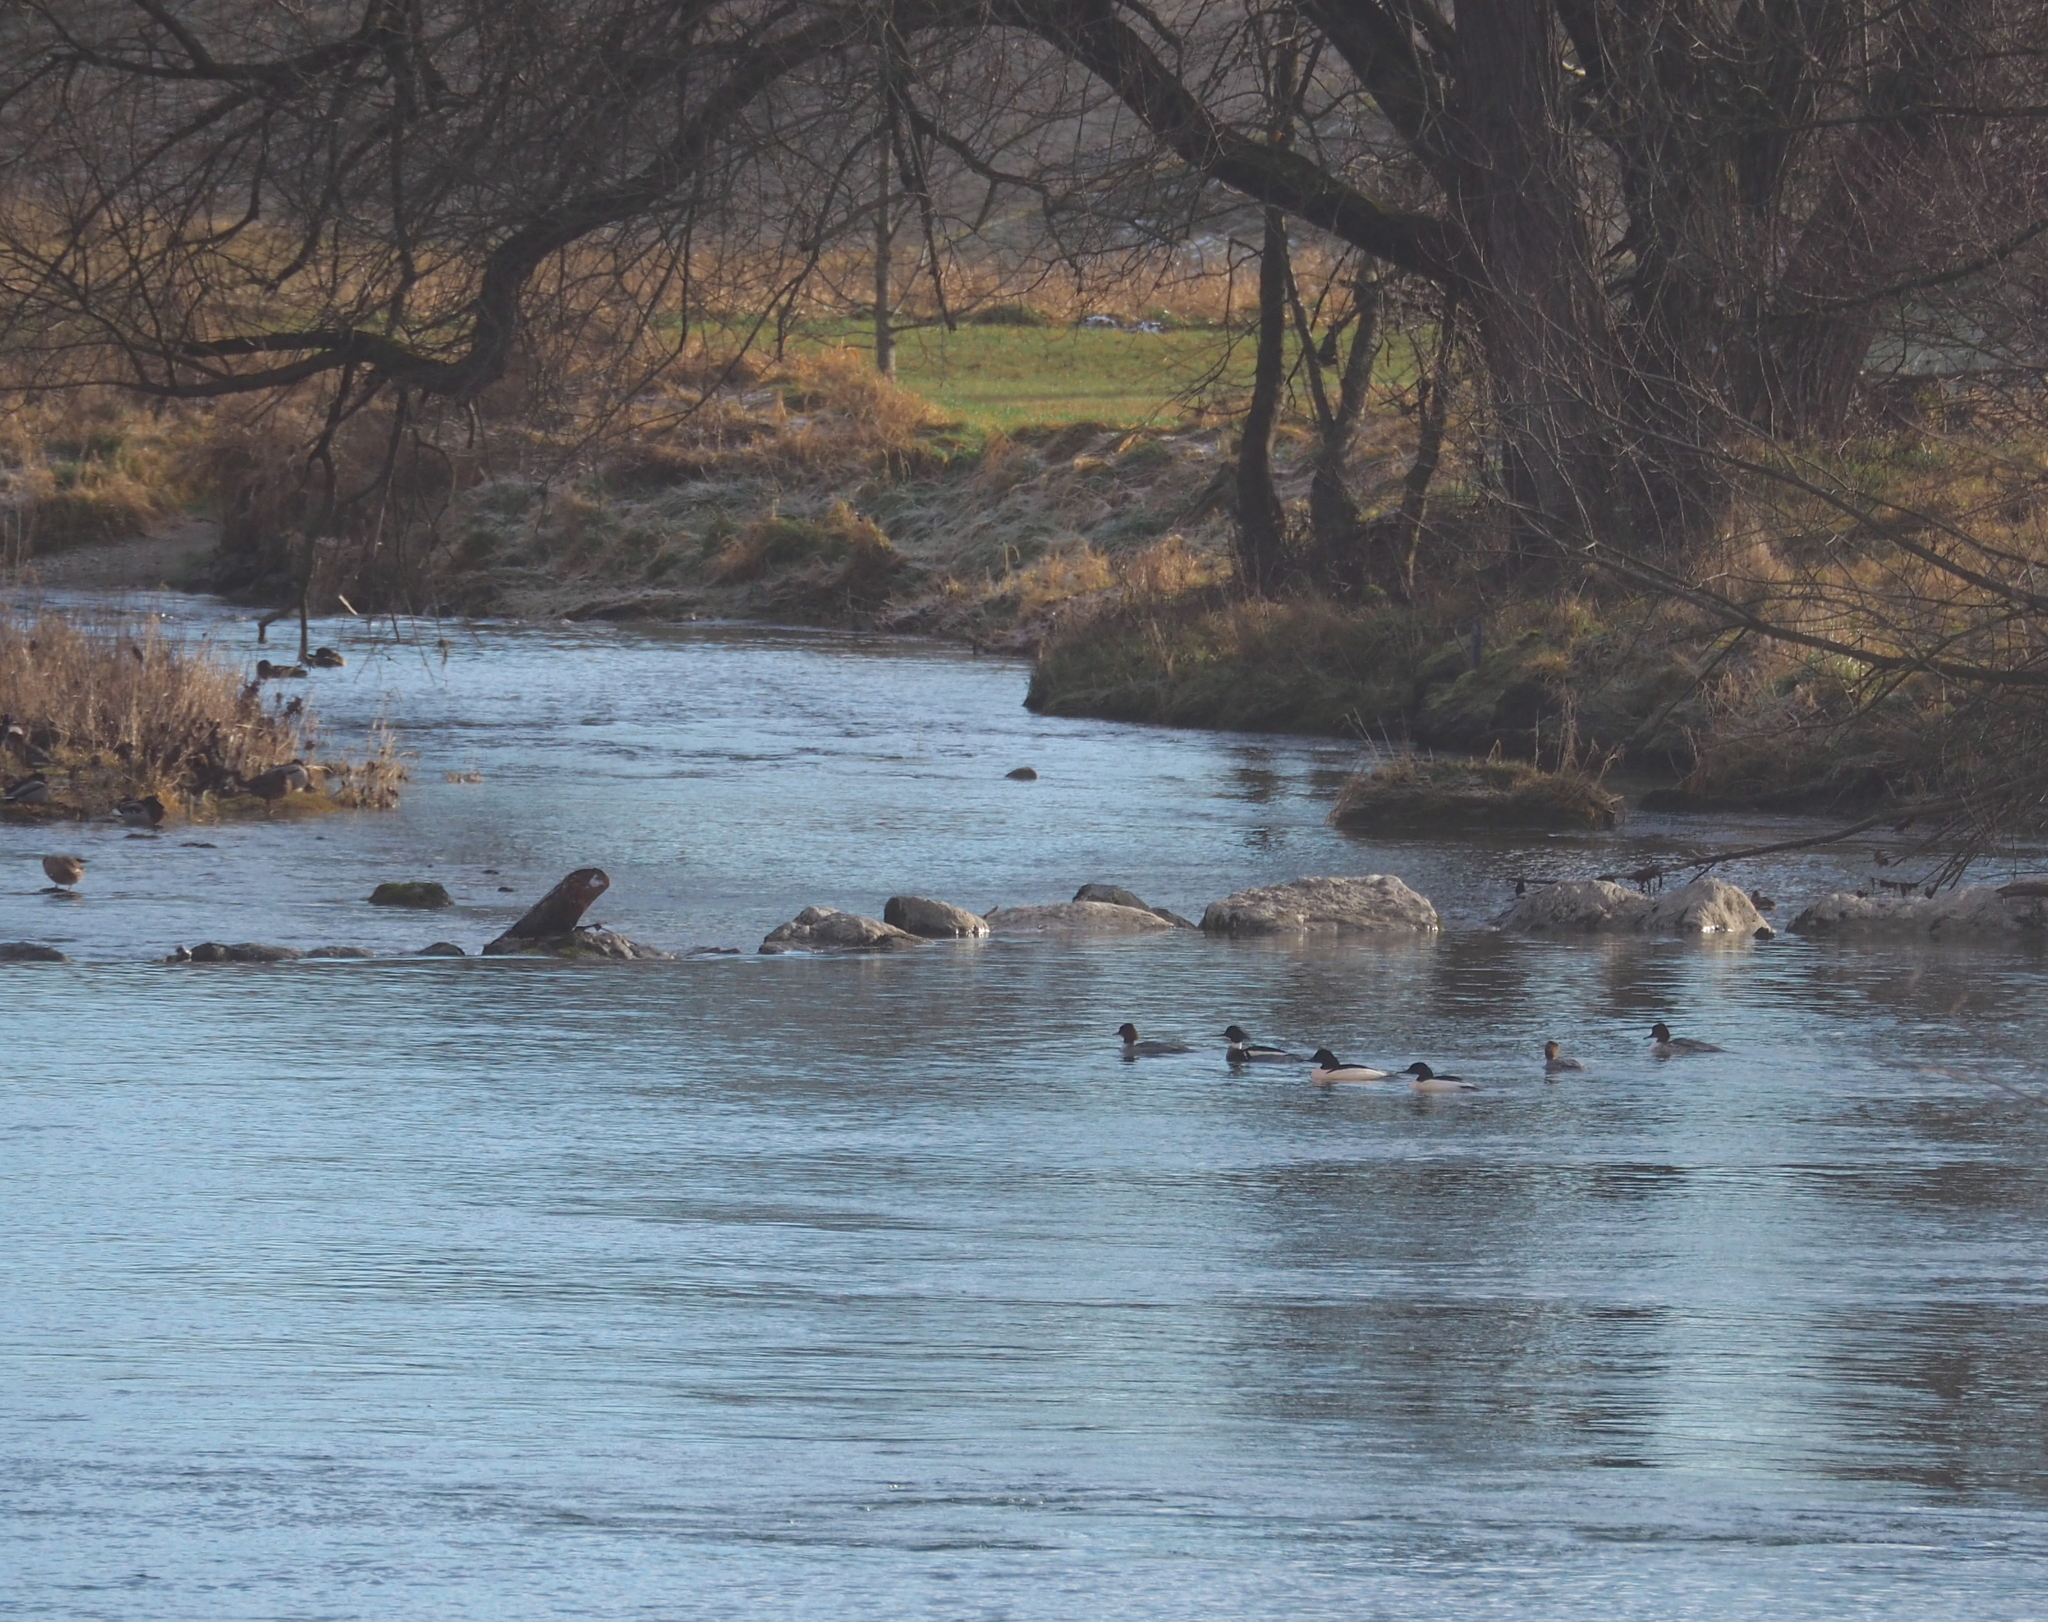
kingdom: Animalia
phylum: Chordata
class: Aves
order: Anseriformes
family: Anatidae
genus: Mergus
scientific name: Mergus merganser
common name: Common merganser
